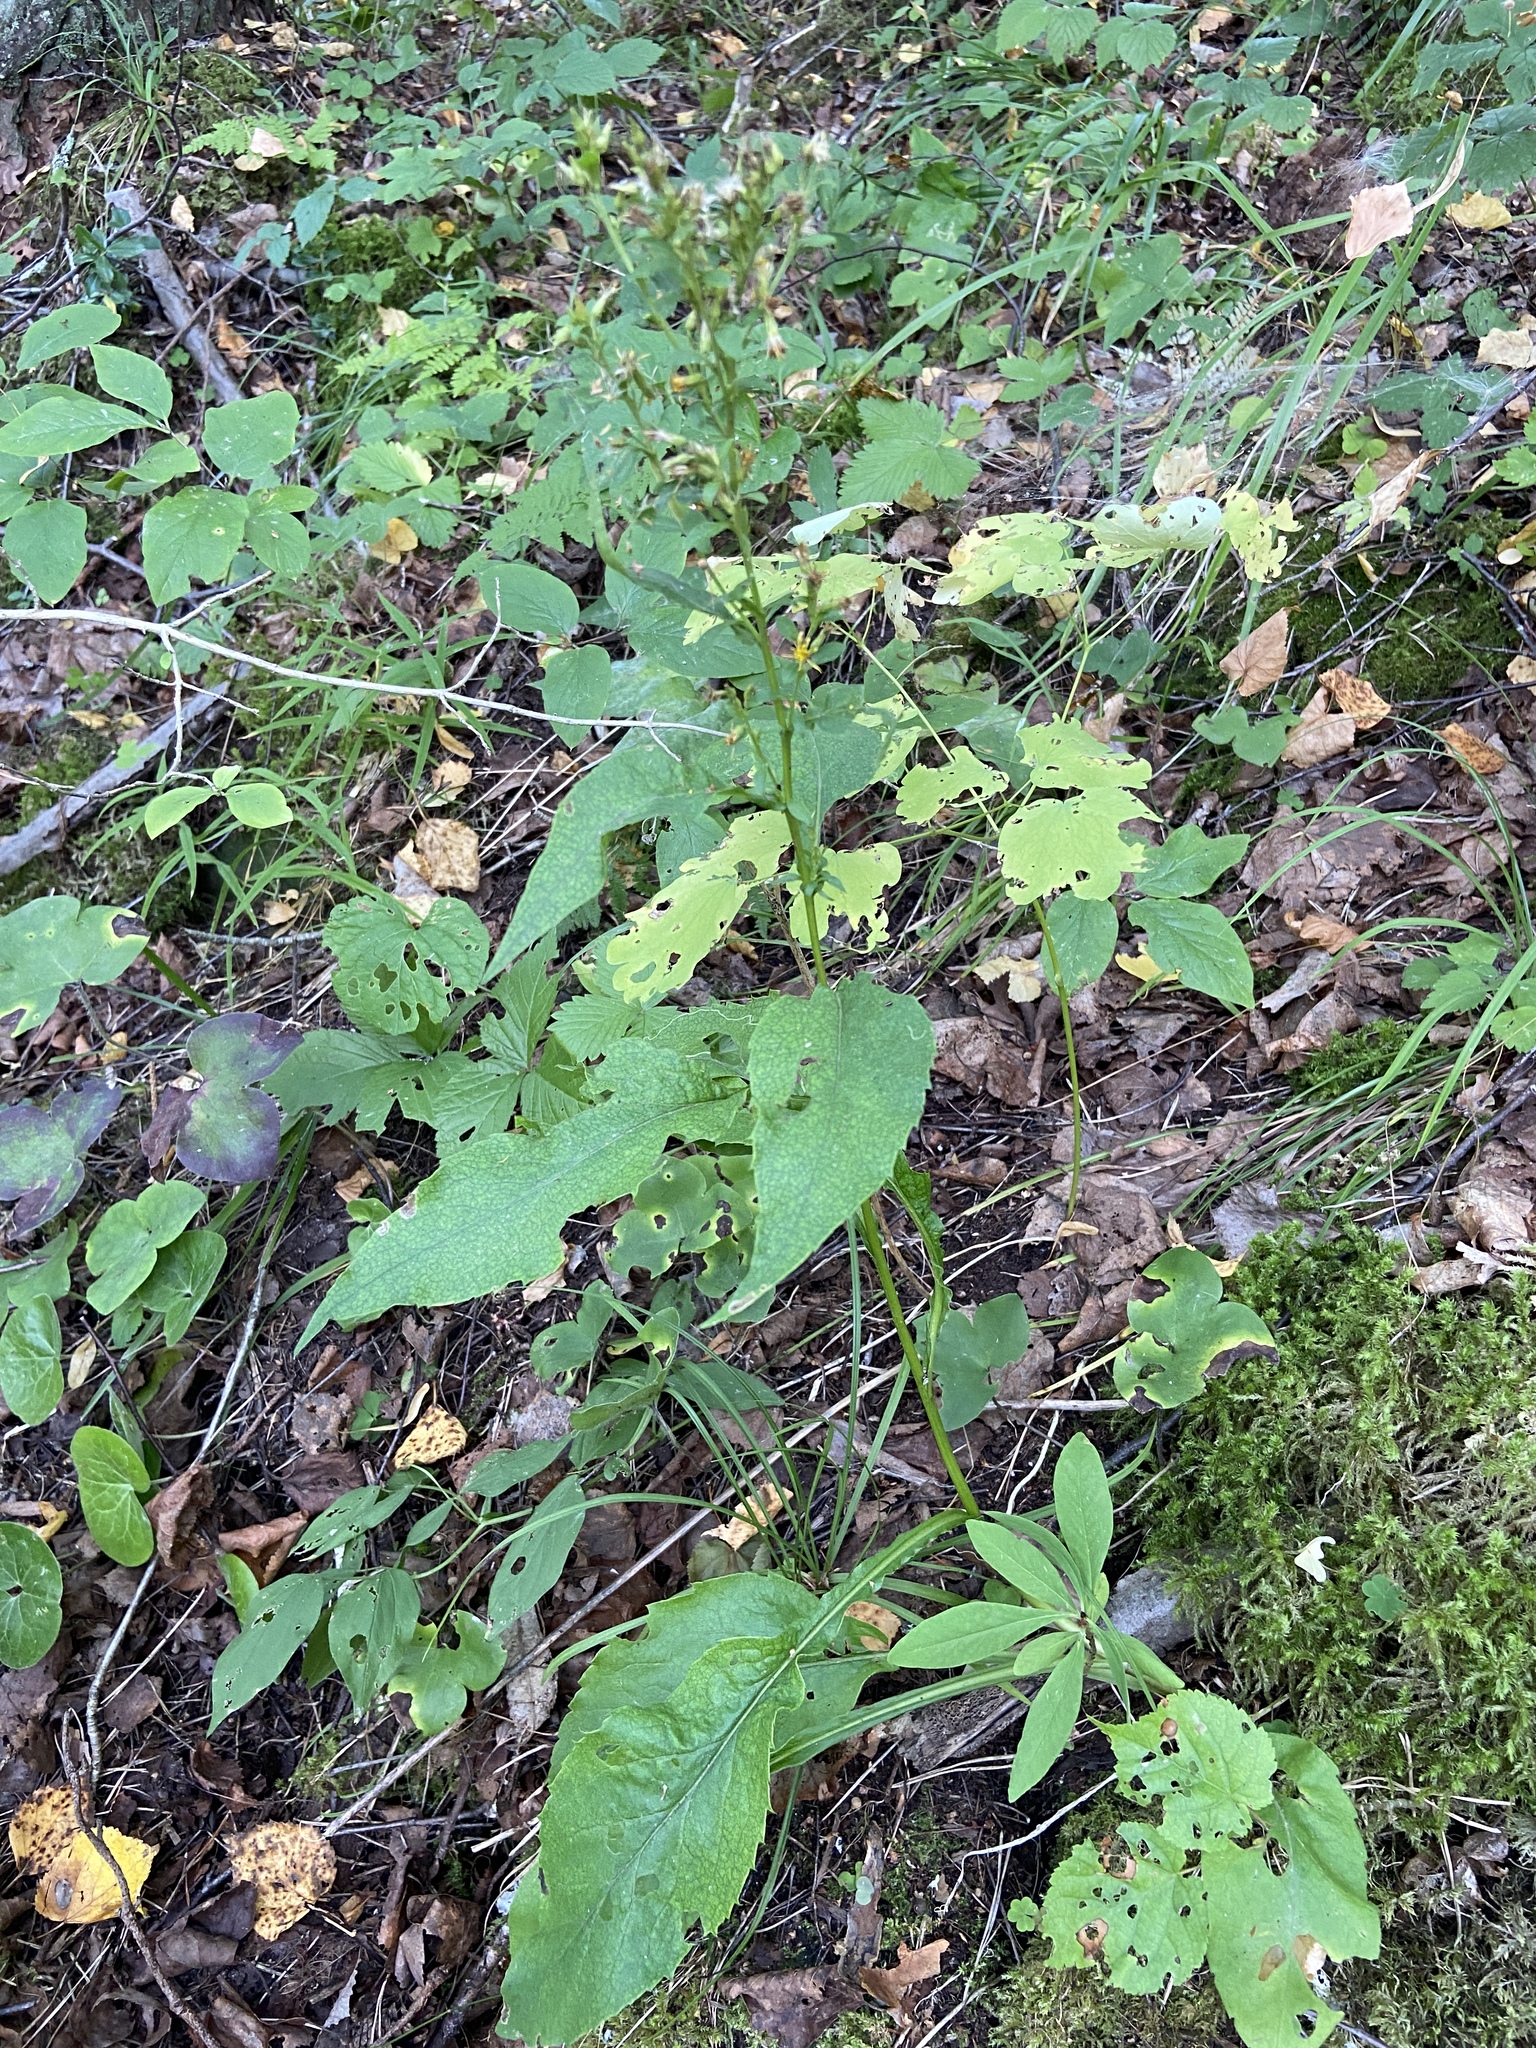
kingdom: Plantae
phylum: Tracheophyta
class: Magnoliopsida
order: Asterales
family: Asteraceae
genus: Solidago
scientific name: Solidago virgaurea
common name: Goldenrod
